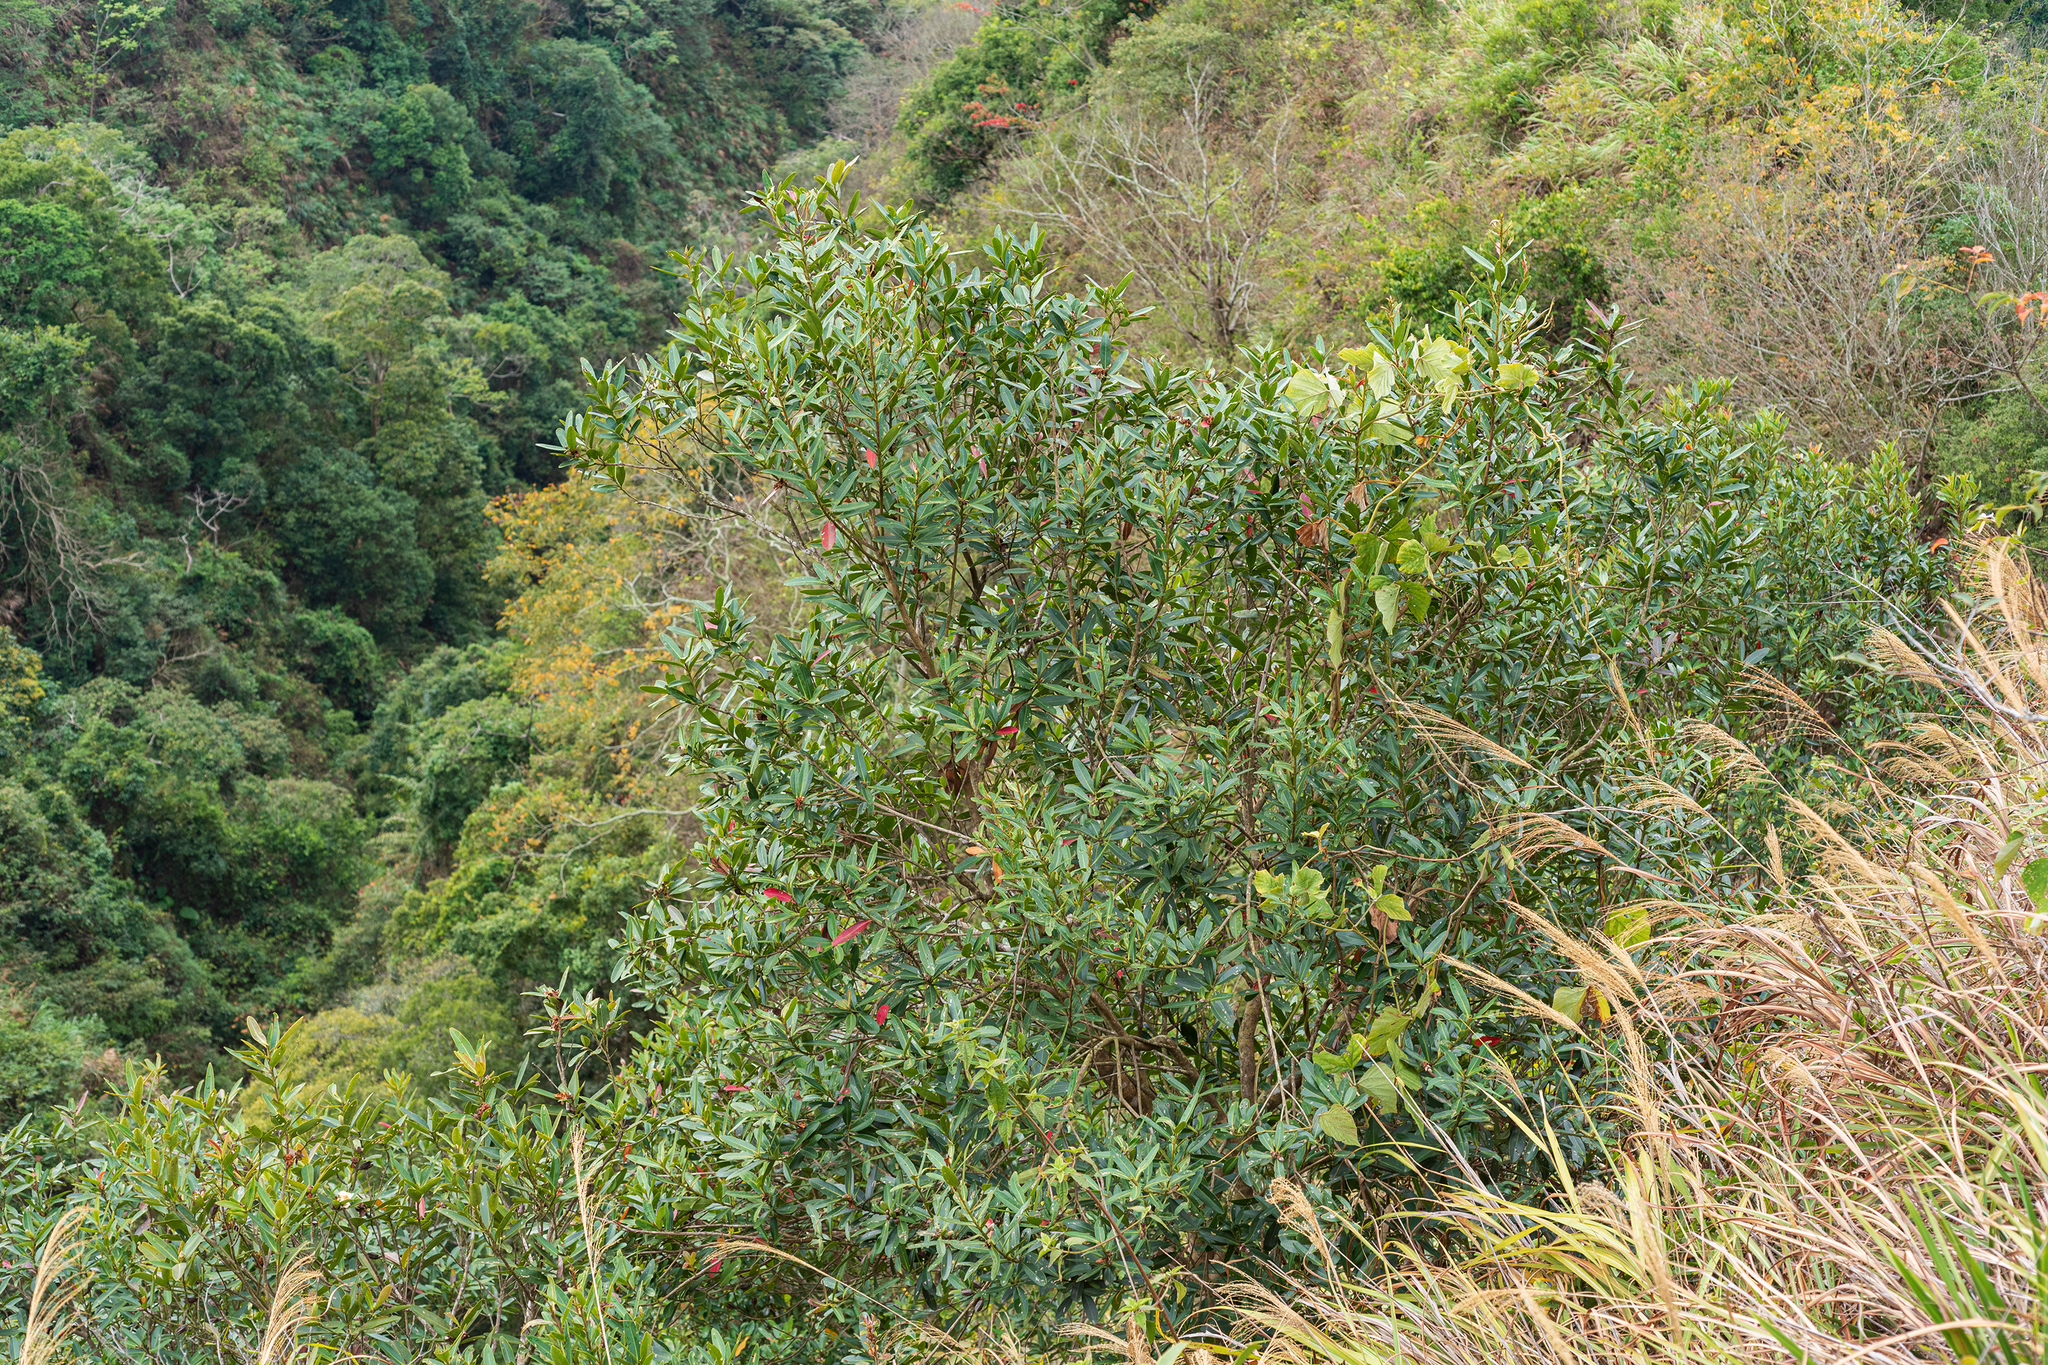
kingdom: Plantae
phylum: Tracheophyta
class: Magnoliopsida
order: Ericales
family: Theaceae
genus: Polyspora
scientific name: Polyspora axillaris
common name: Fried egg tree
